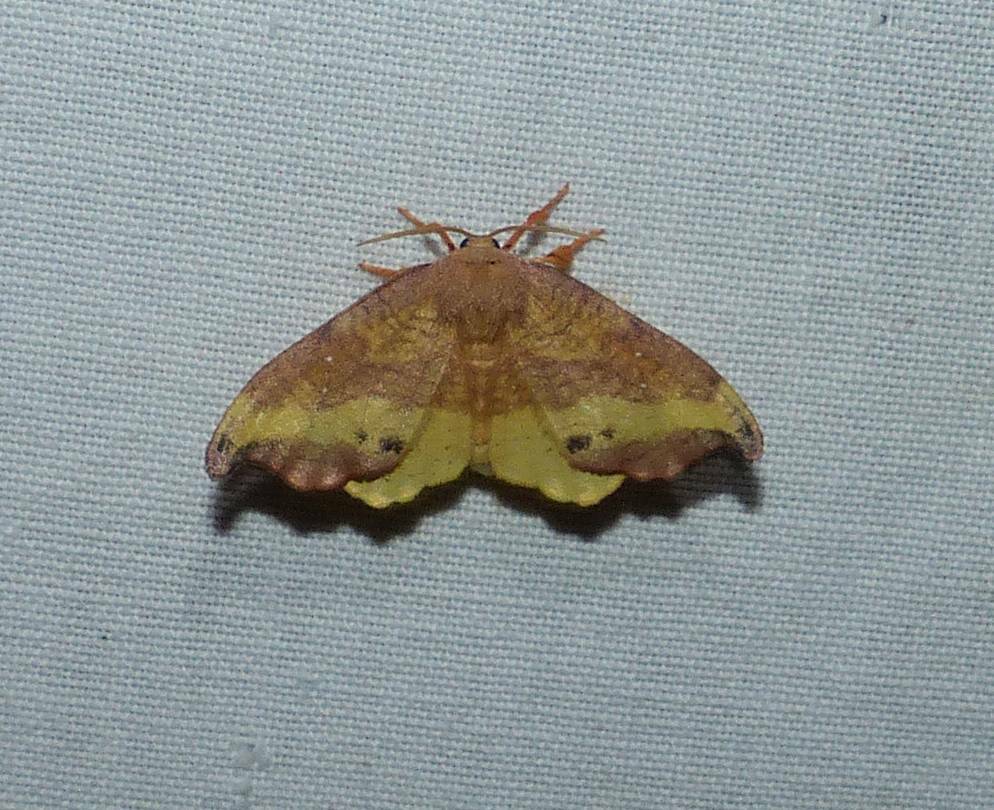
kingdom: Animalia
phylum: Arthropoda
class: Insecta
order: Lepidoptera
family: Drepanidae
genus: Oreta
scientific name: Oreta rosea
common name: Rose hooktip
